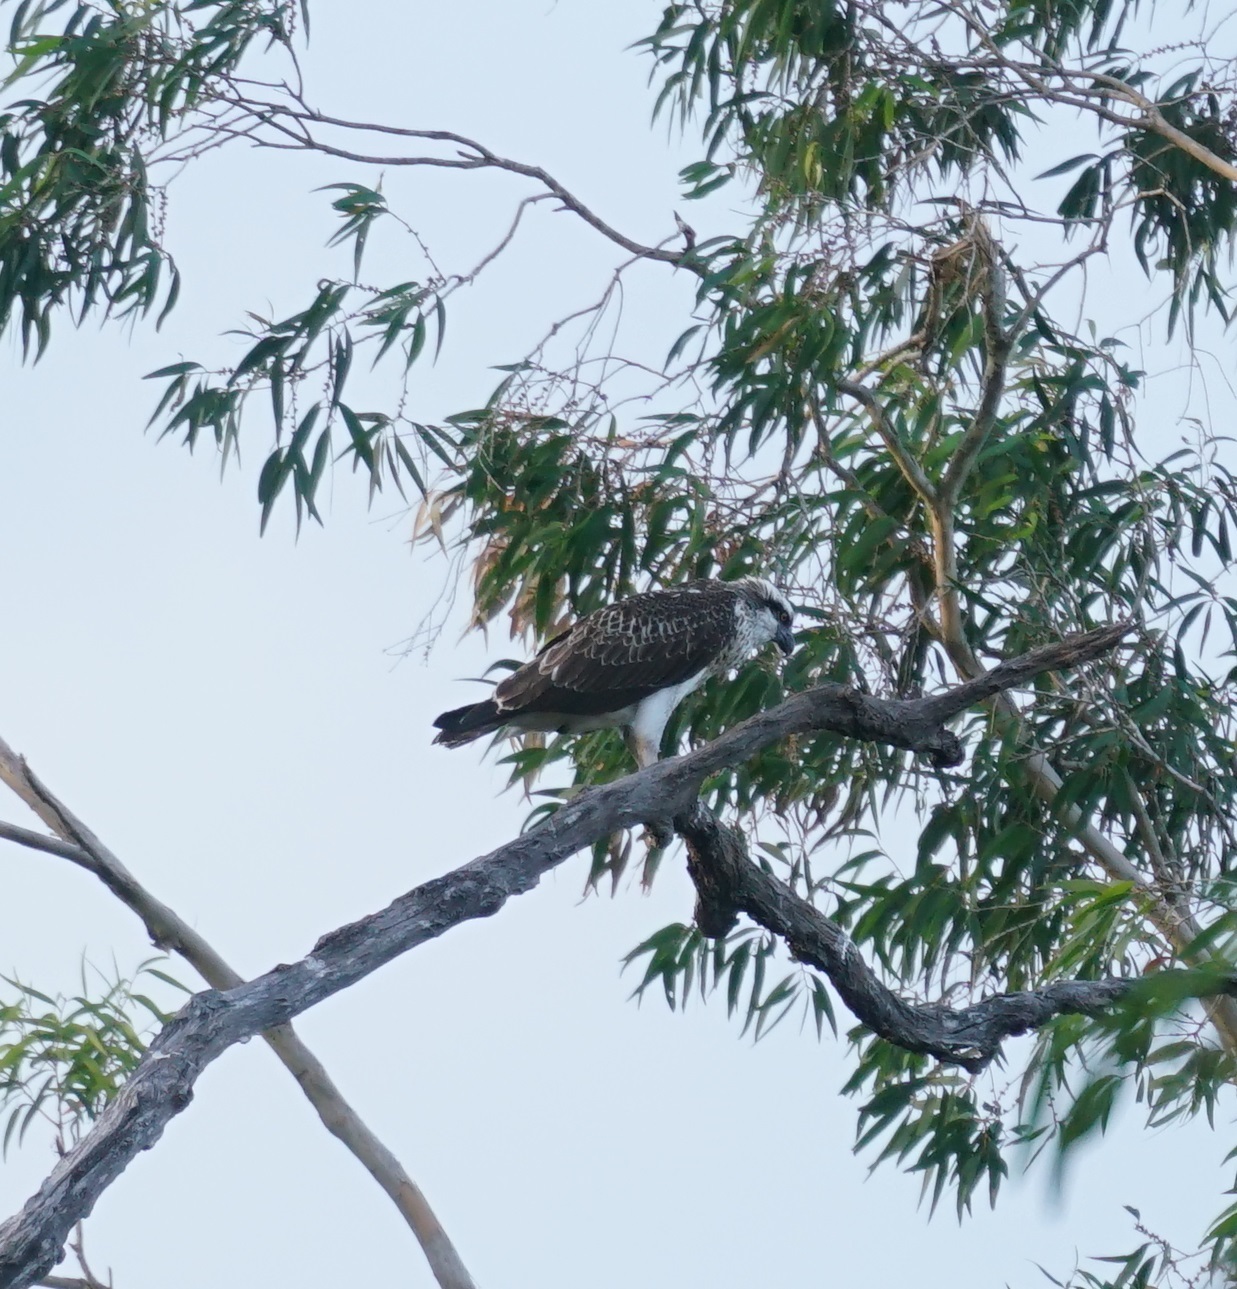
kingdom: Animalia
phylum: Chordata
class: Aves
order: Accipitriformes
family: Pandionidae
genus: Pandion
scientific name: Pandion haliaetus
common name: Osprey
